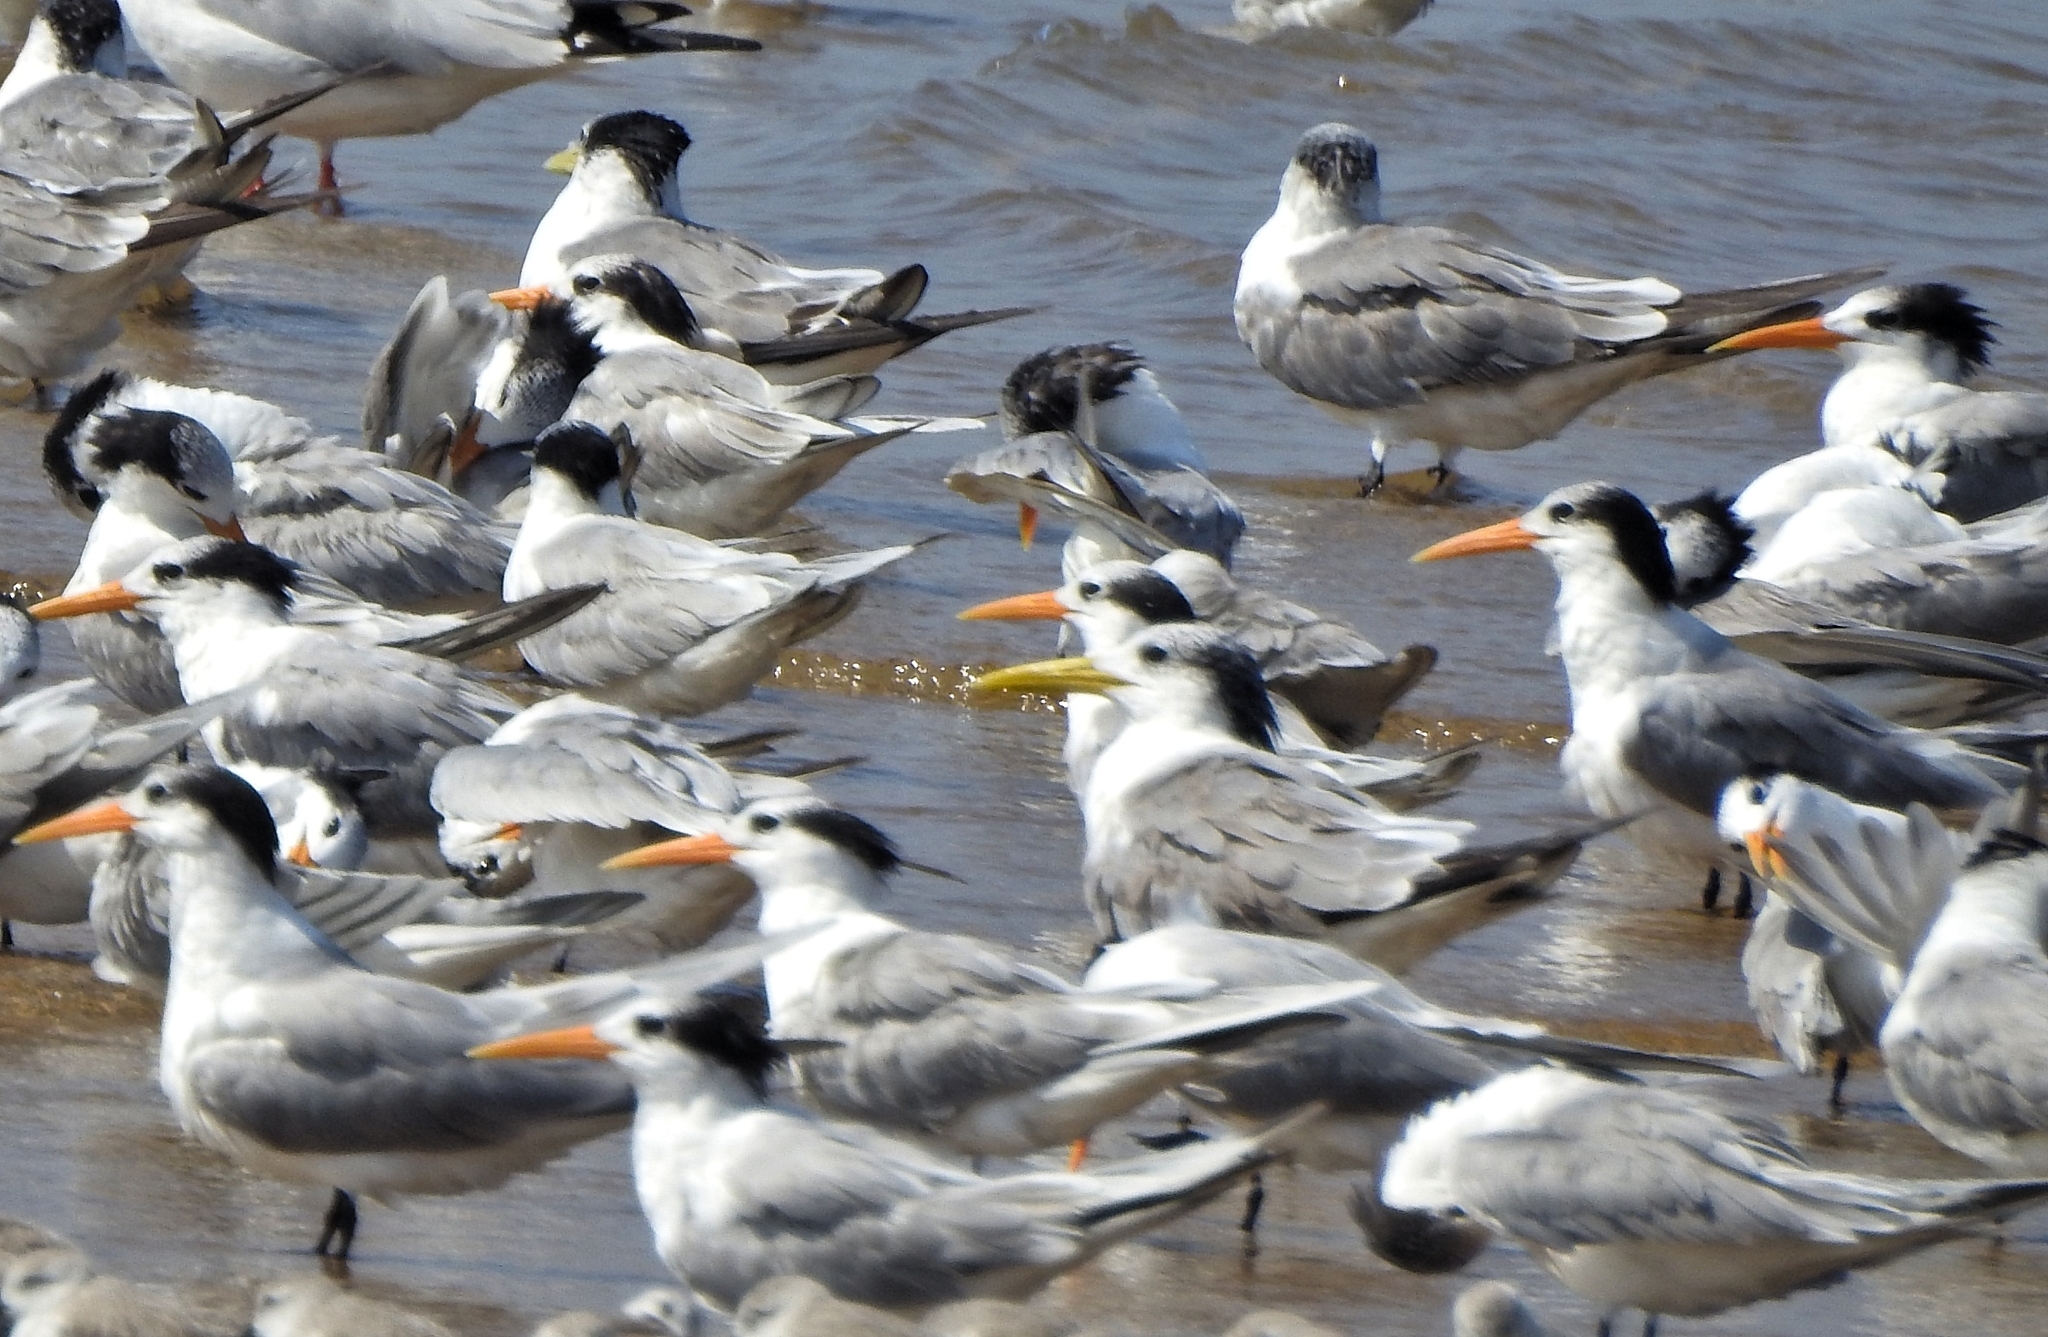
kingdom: Animalia
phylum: Chordata
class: Aves
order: Charadriiformes
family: Laridae
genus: Thalasseus
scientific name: Thalasseus bergii
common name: Greater crested tern
